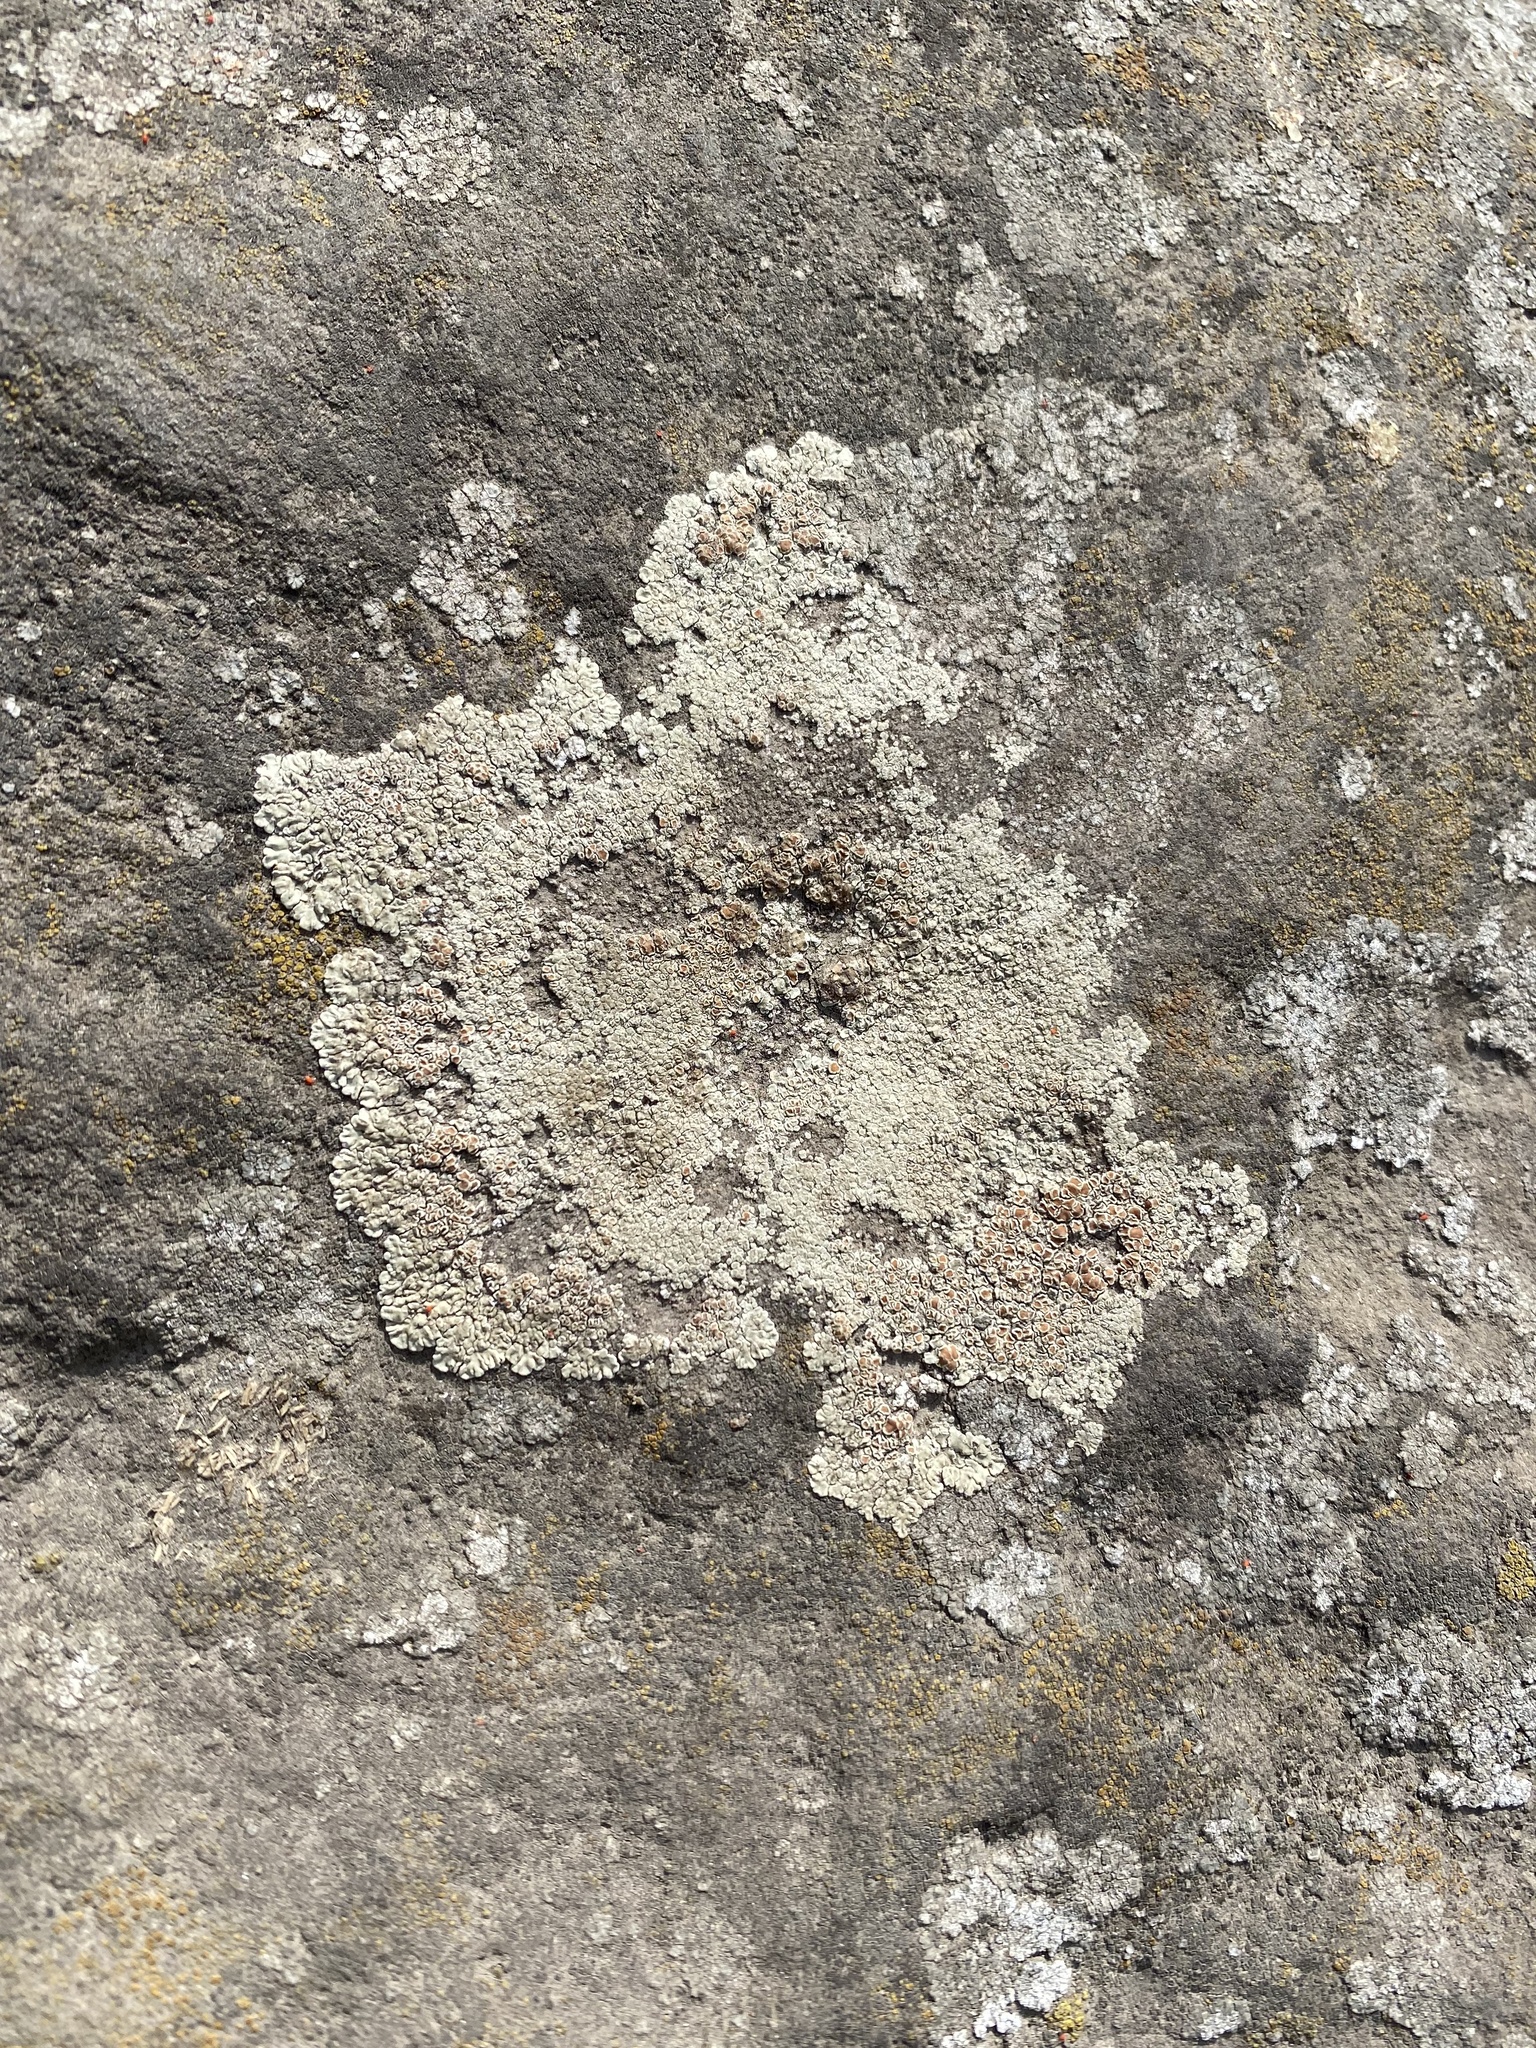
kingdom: Fungi
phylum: Ascomycota
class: Lecanoromycetes
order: Lecanorales
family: Lecanoraceae
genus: Protoparmeliopsis
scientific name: Protoparmeliopsis muralis
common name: Stonewall rim lichen
